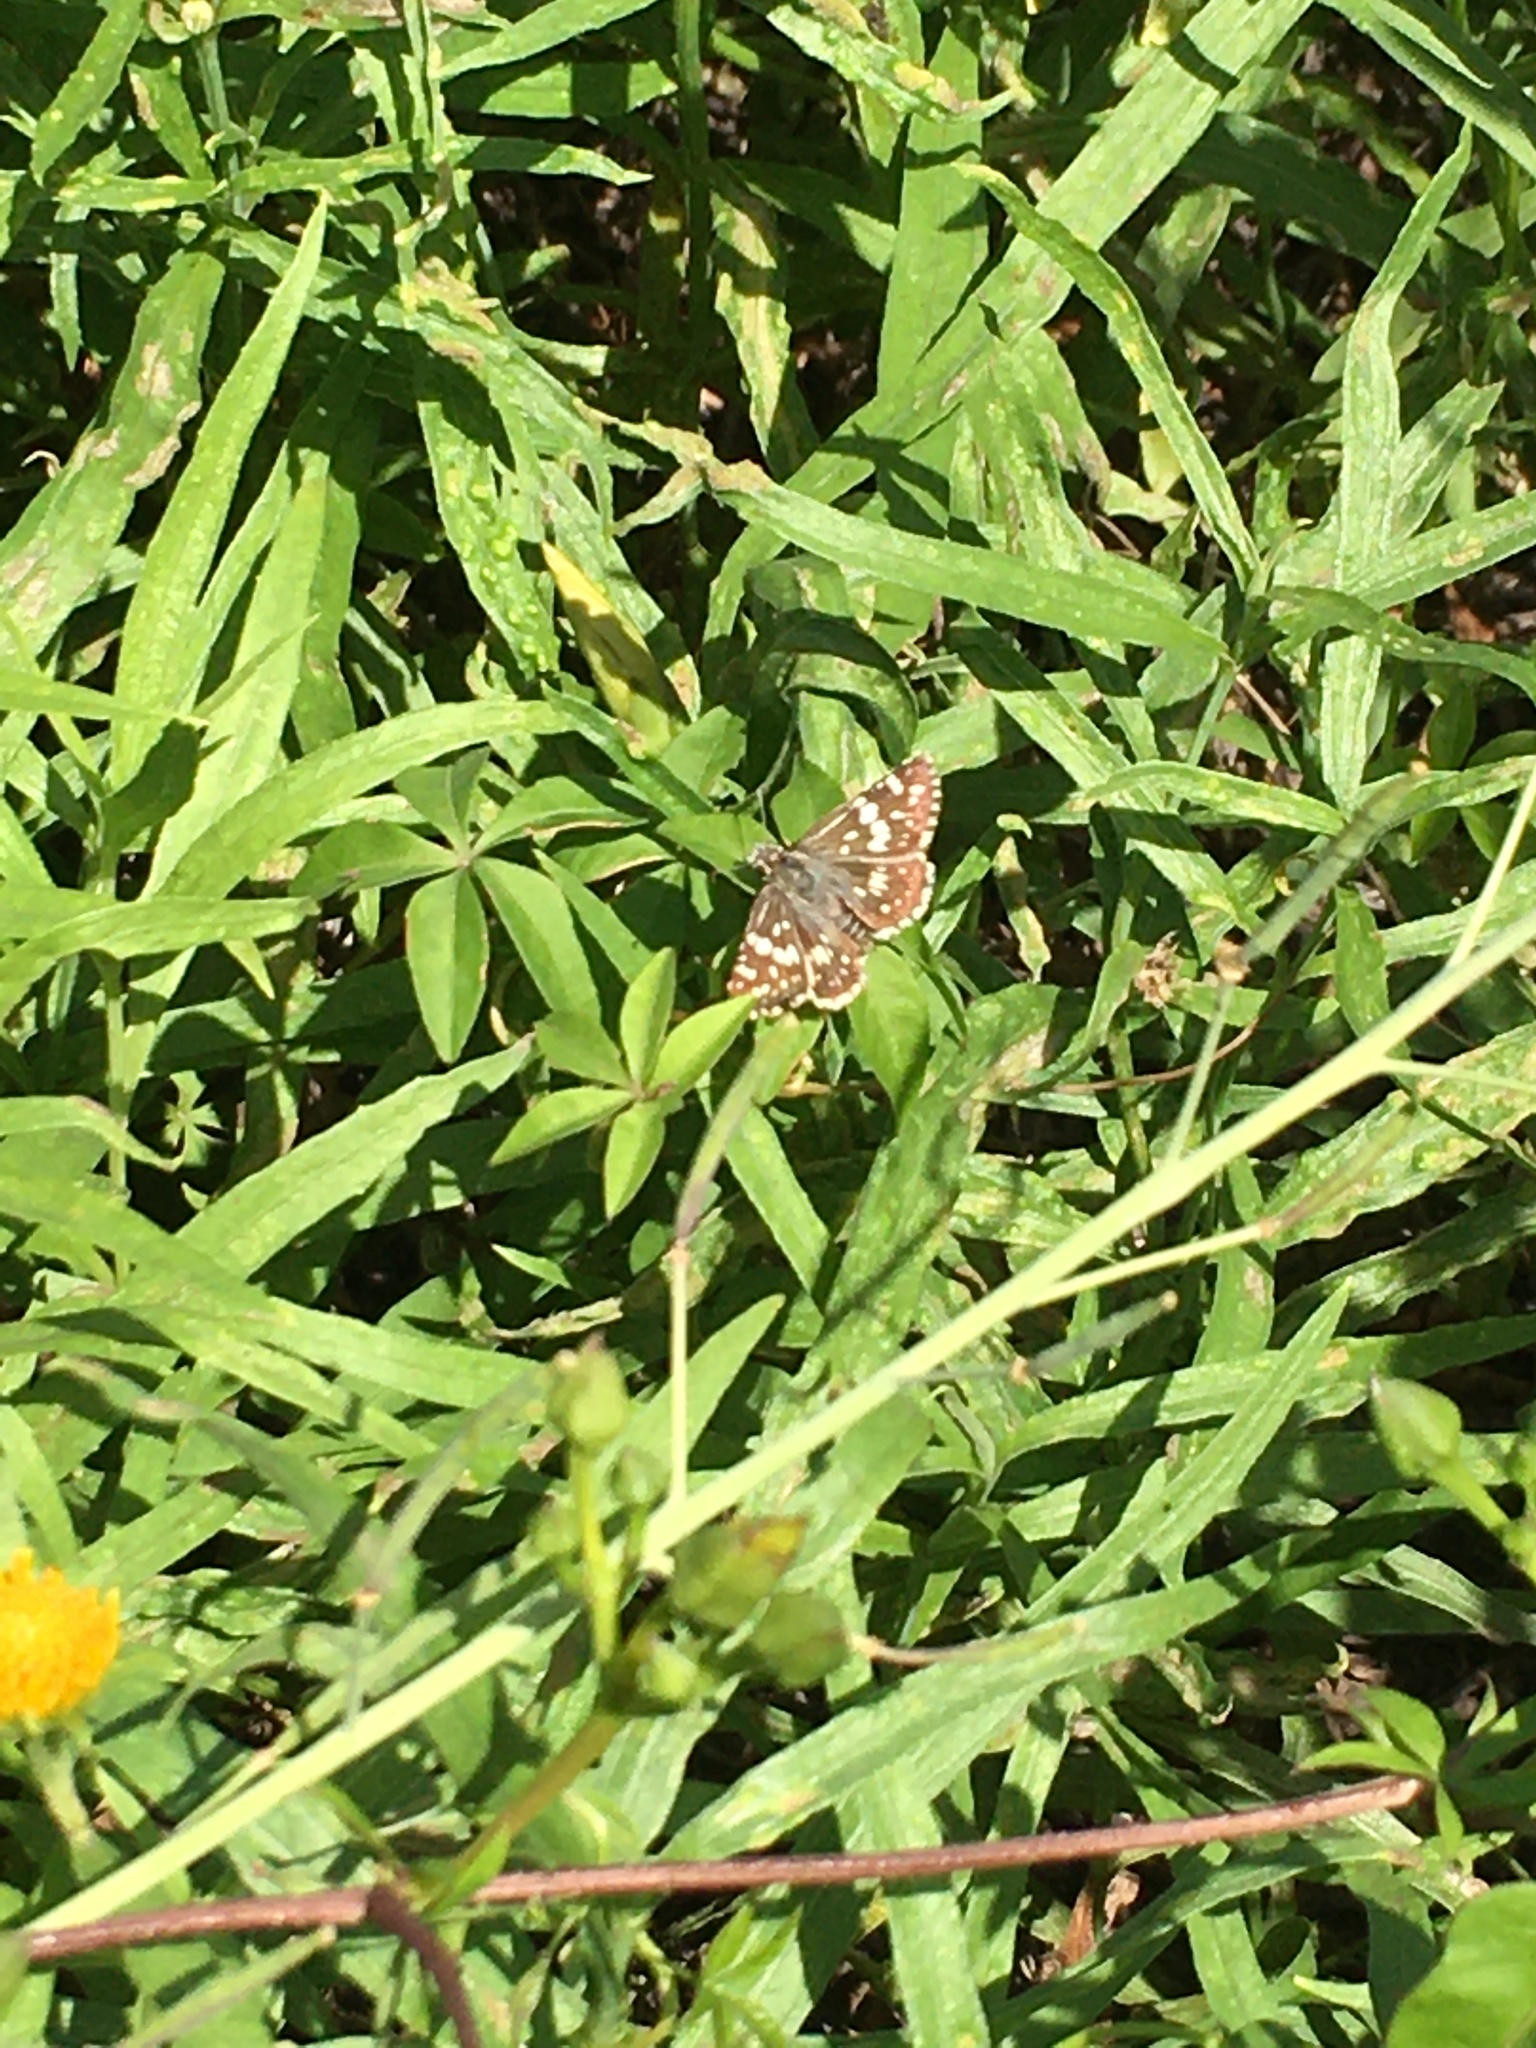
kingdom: Animalia
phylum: Arthropoda
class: Insecta
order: Lepidoptera
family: Hesperiidae
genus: Burnsius
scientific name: Burnsius orcynoides
